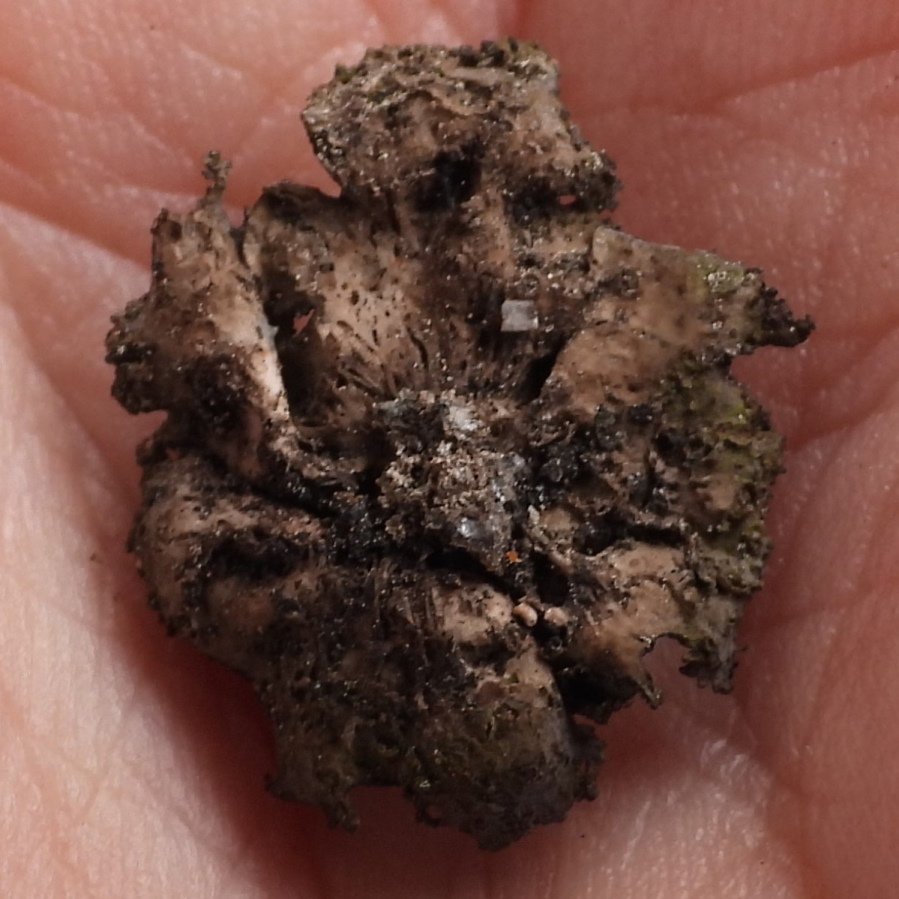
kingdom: Fungi
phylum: Ascomycota
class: Lecanoromycetes
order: Umbilicariales
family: Umbilicariaceae
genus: Umbilicaria
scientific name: Umbilicaria torrefacta
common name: Punctured rock tripe lichen
